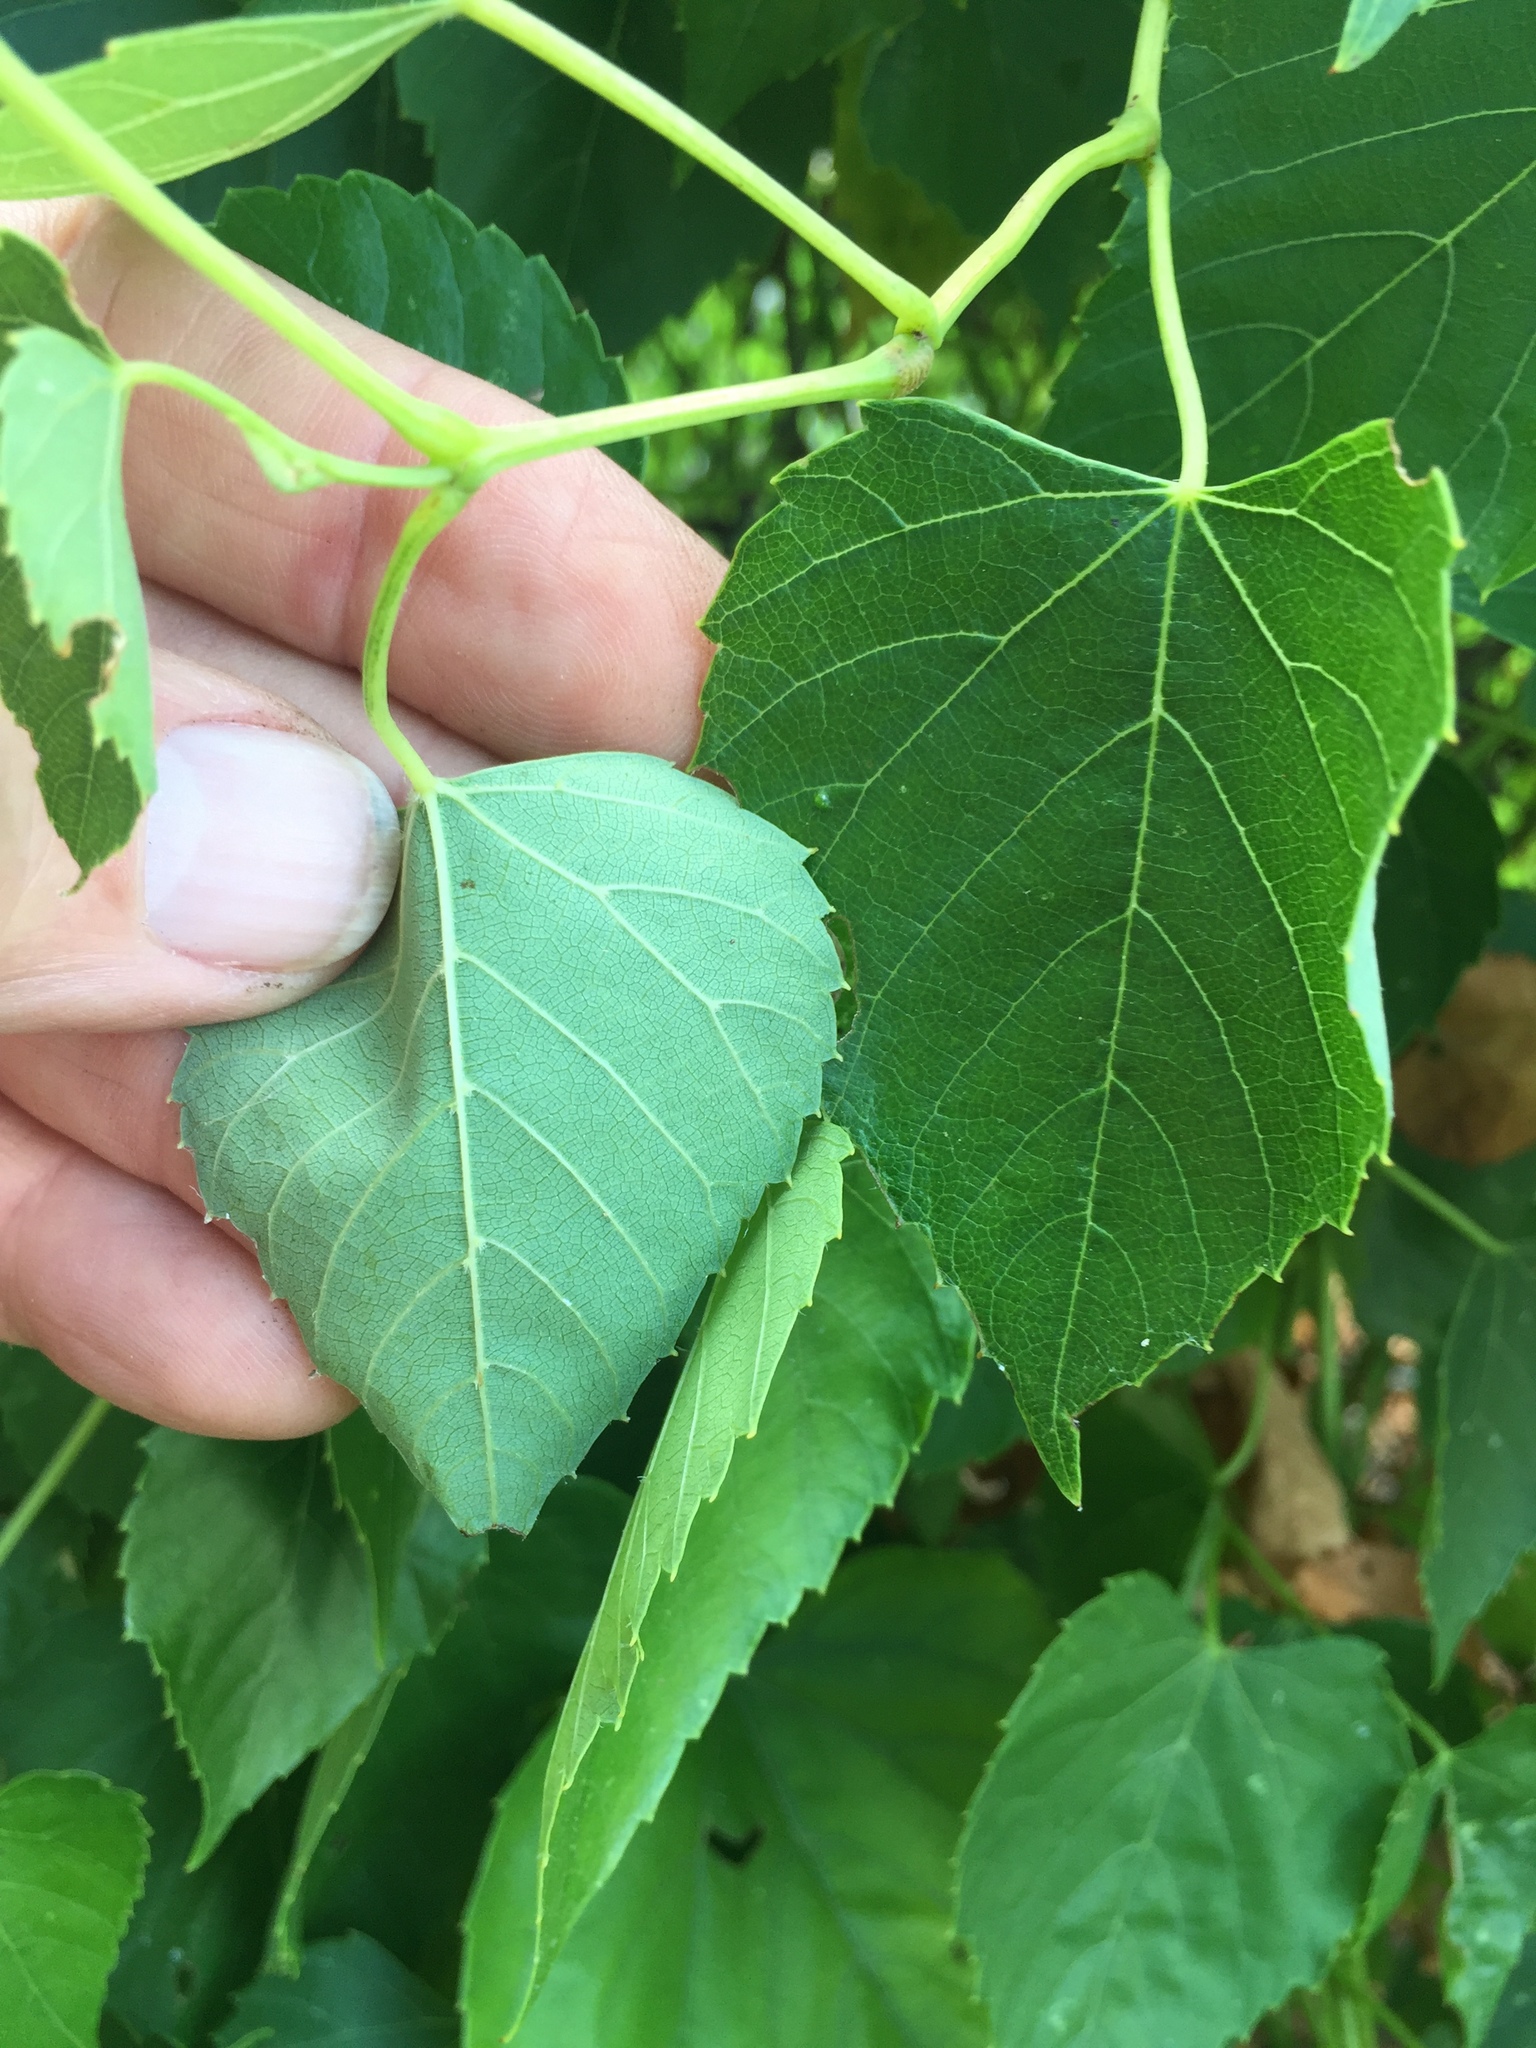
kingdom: Plantae
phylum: Tracheophyta
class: Magnoliopsida
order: Vitales
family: Vitaceae
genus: Ampelopsis
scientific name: Ampelopsis cordata
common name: Heart-leaf ampelopsis
